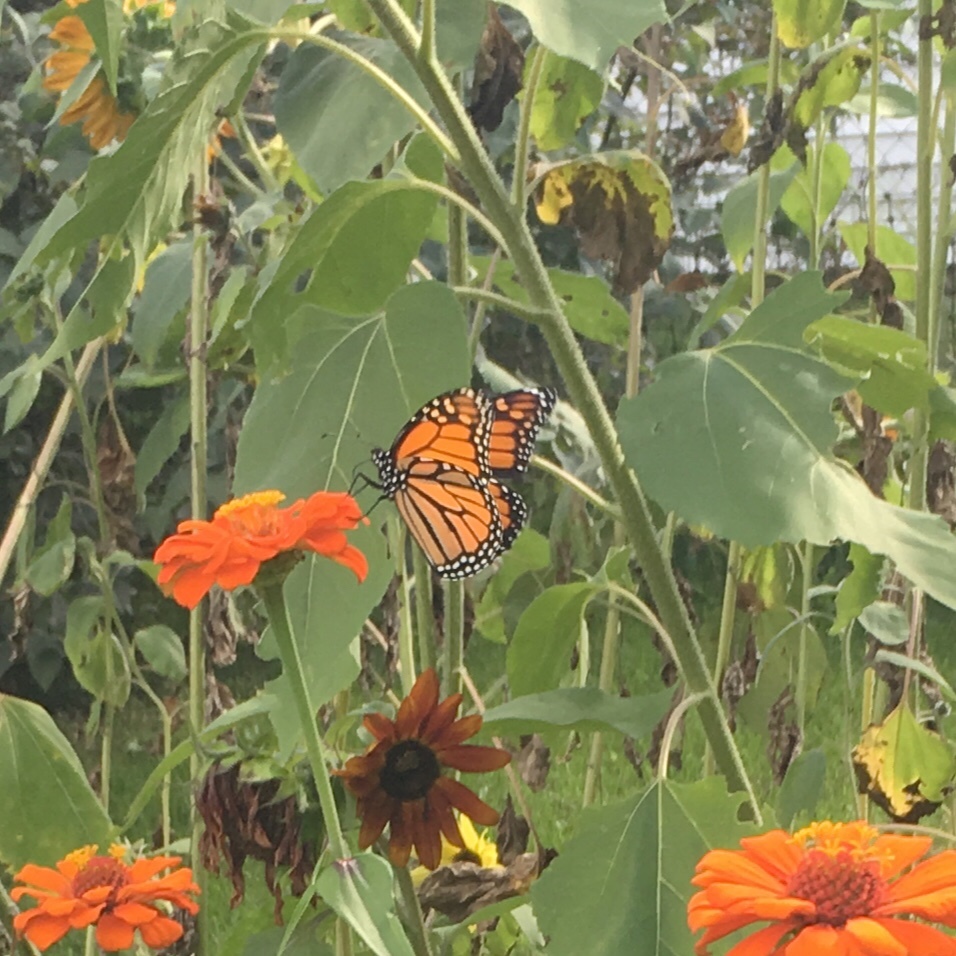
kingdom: Animalia
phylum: Arthropoda
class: Insecta
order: Lepidoptera
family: Nymphalidae
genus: Danaus
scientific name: Danaus plexippus
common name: Monarch
